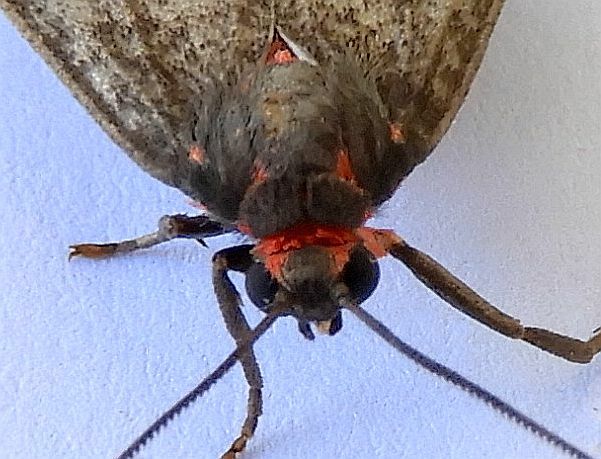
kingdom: Animalia
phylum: Arthropoda
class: Insecta
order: Lepidoptera
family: Erebidae
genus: Euchaetes
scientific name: Euchaetes zella
